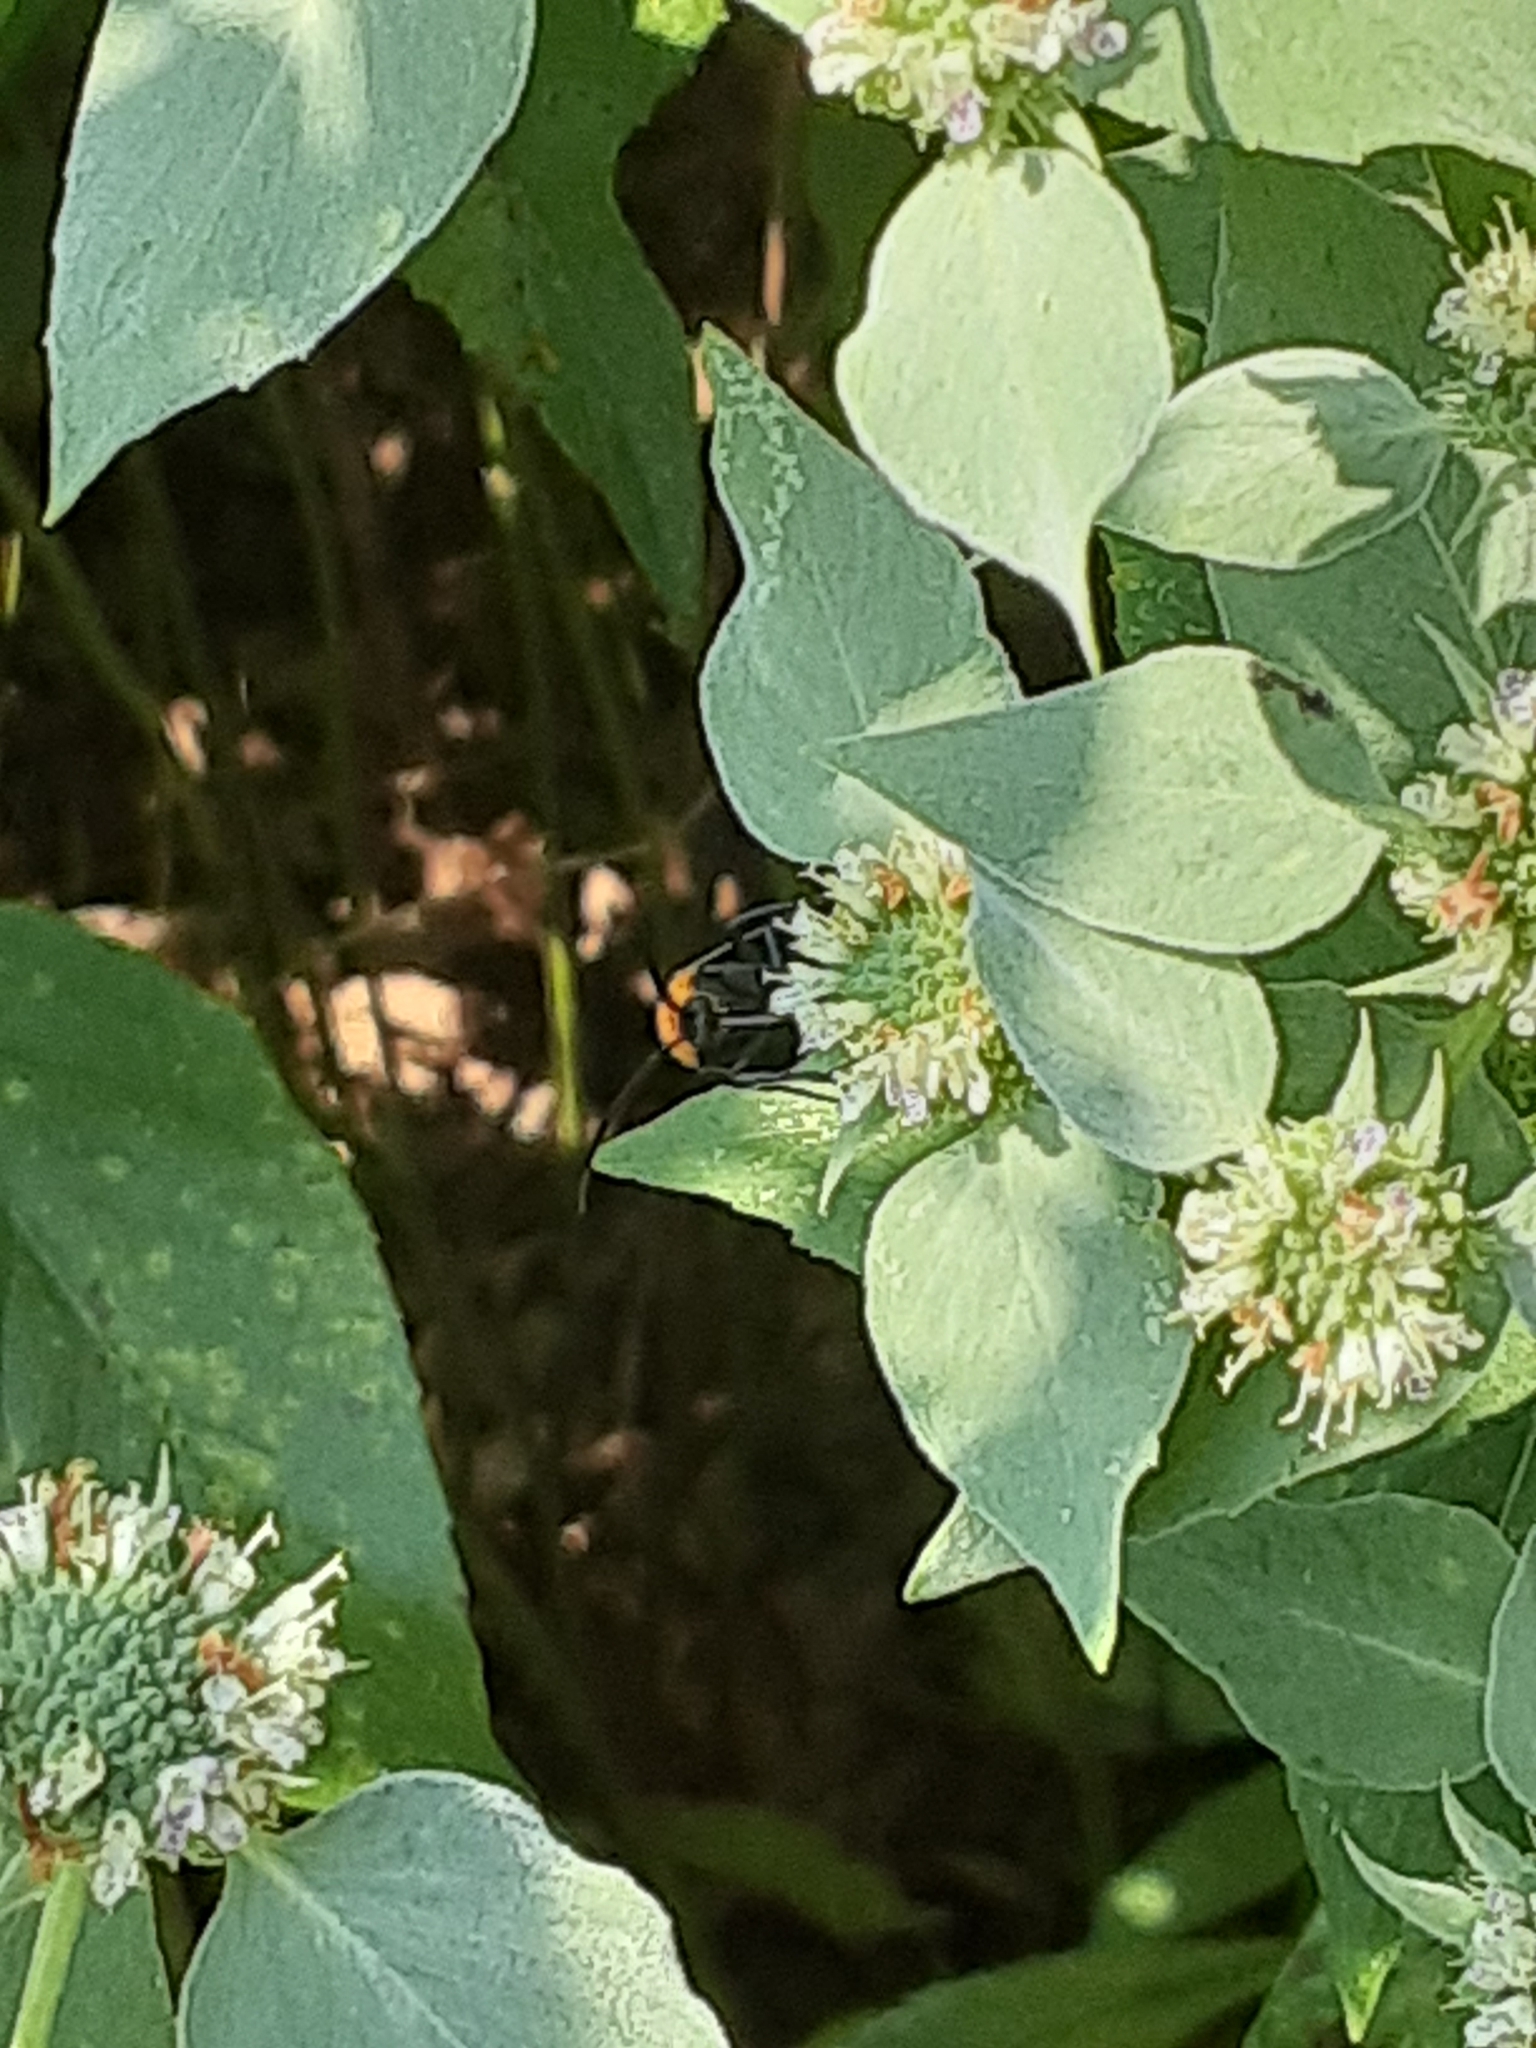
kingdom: Animalia
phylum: Arthropoda
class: Insecta
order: Lepidoptera
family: Erebidae
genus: Cisseps
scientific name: Cisseps fulvicollis
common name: Yellow-collared scape moth
